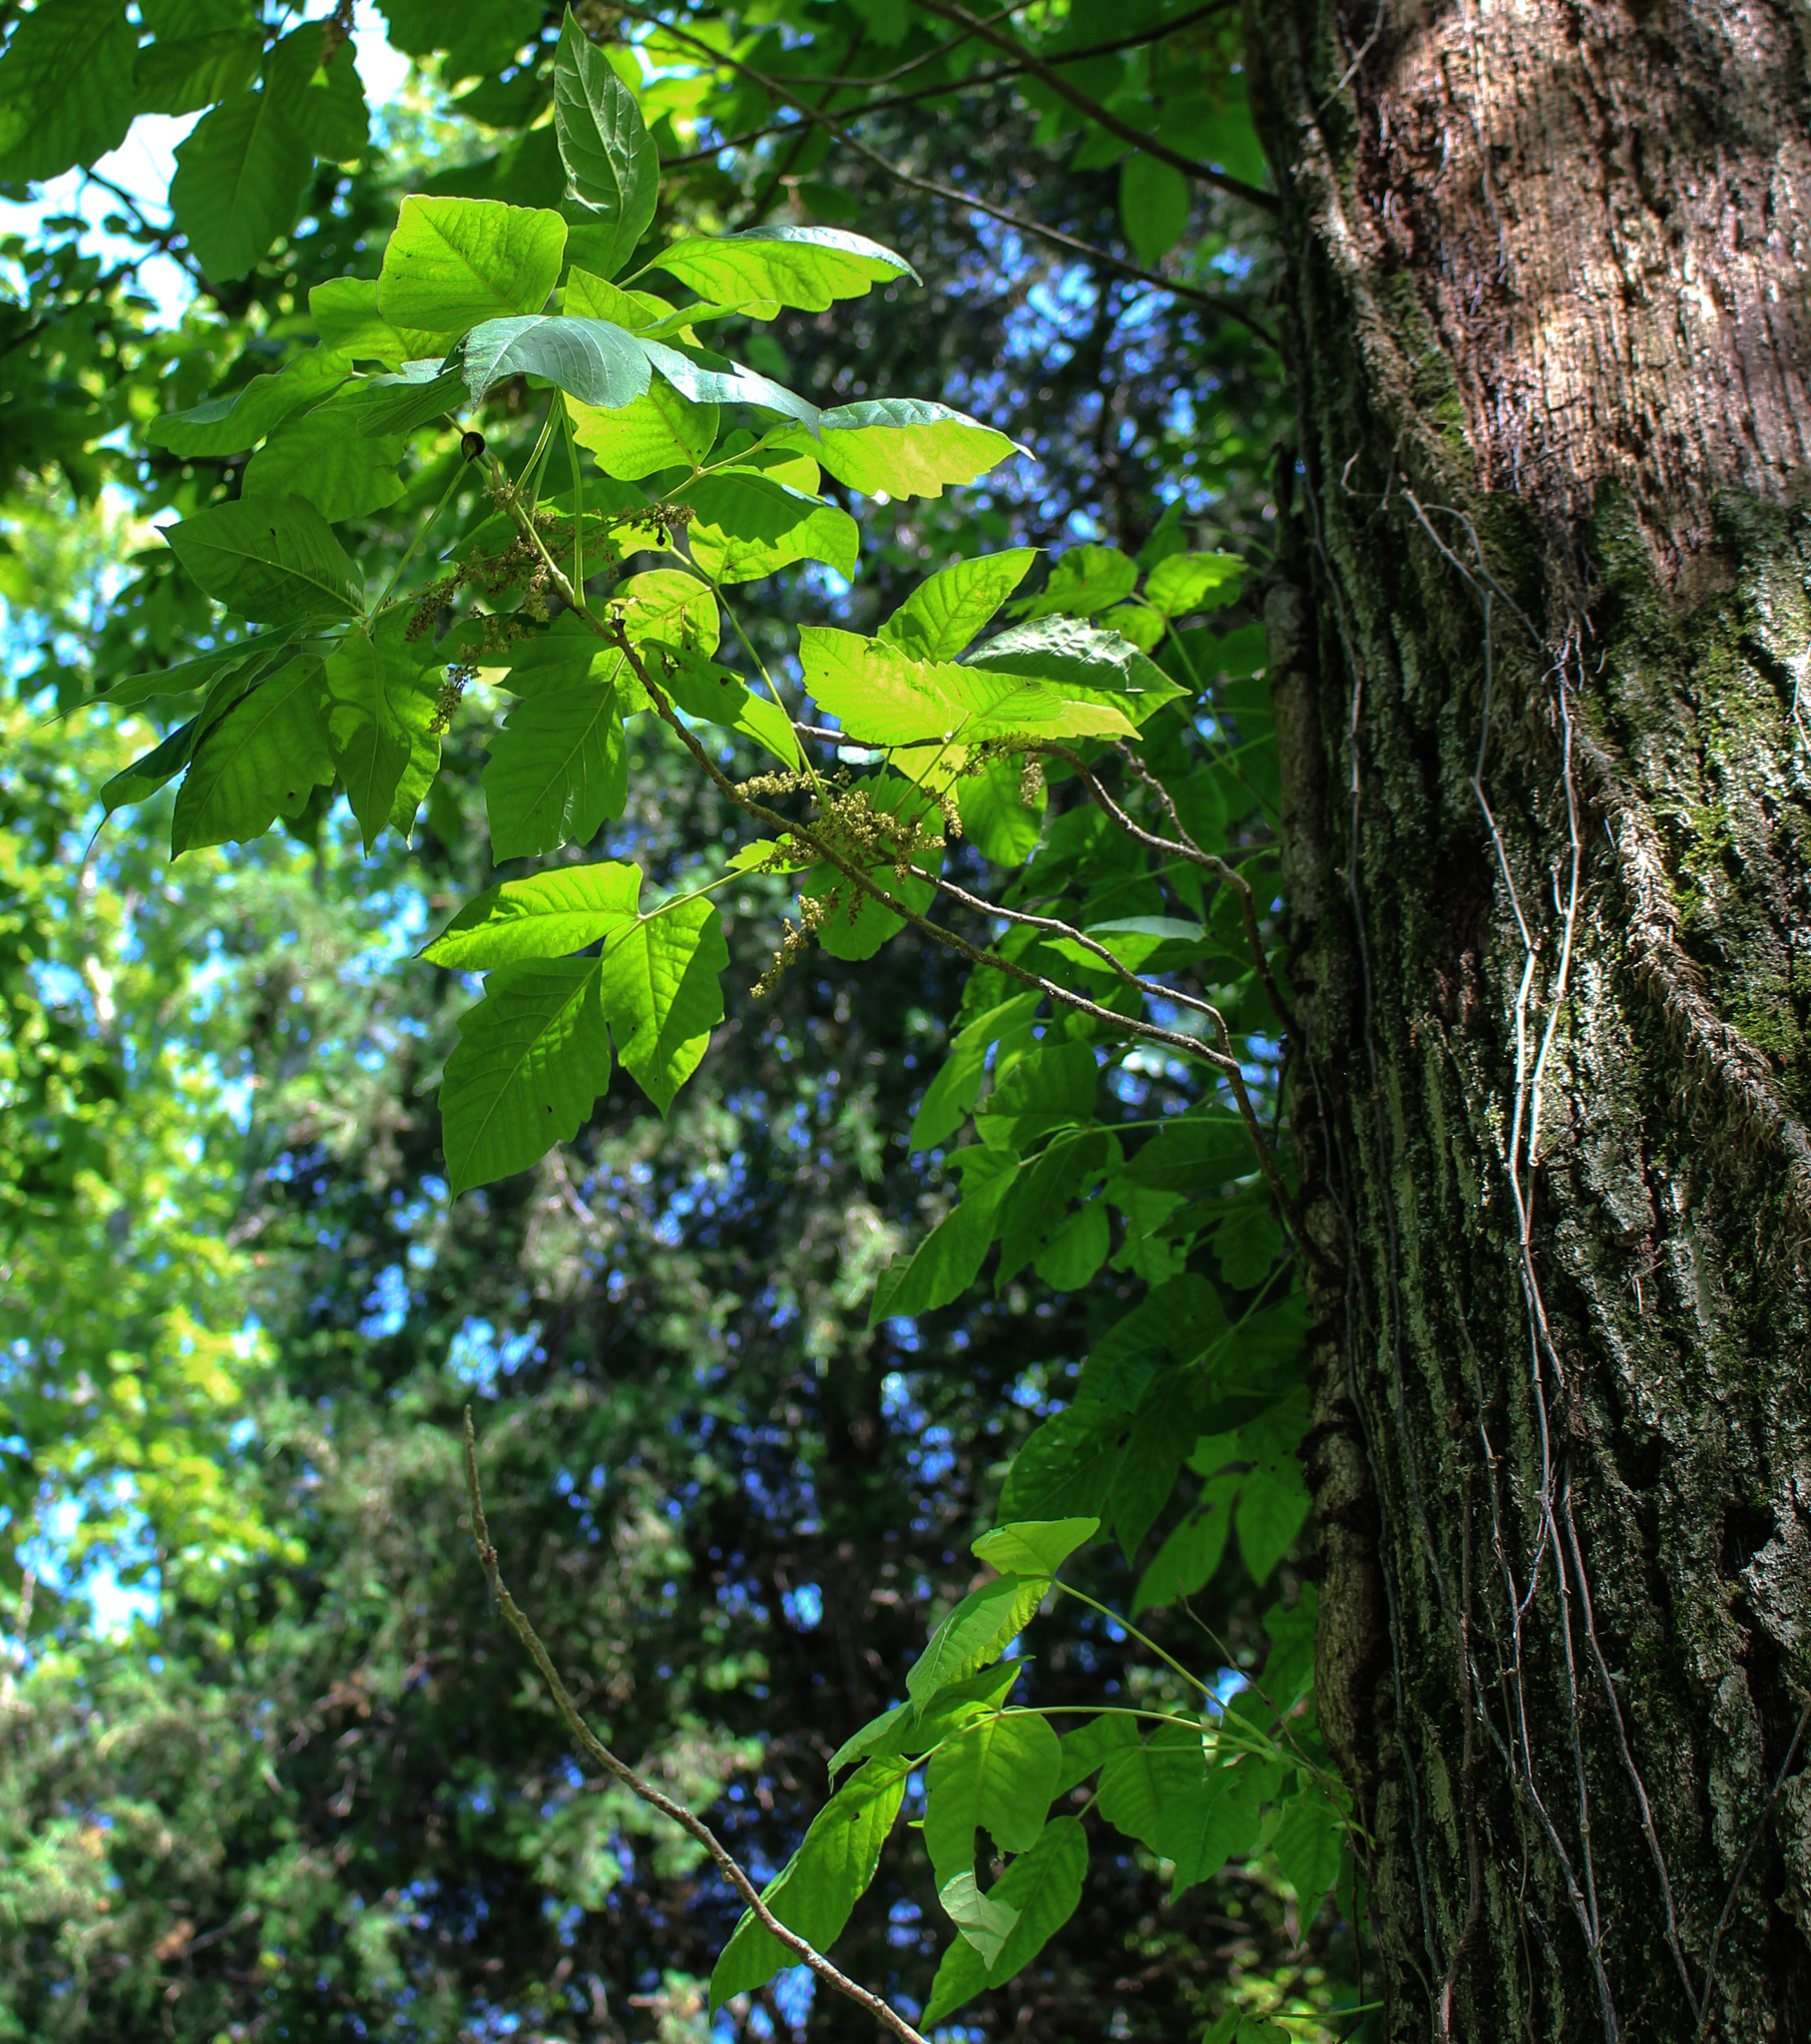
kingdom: Plantae
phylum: Tracheophyta
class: Magnoliopsida
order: Sapindales
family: Anacardiaceae
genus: Toxicodendron
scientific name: Toxicodendron radicans
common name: Poison ivy
